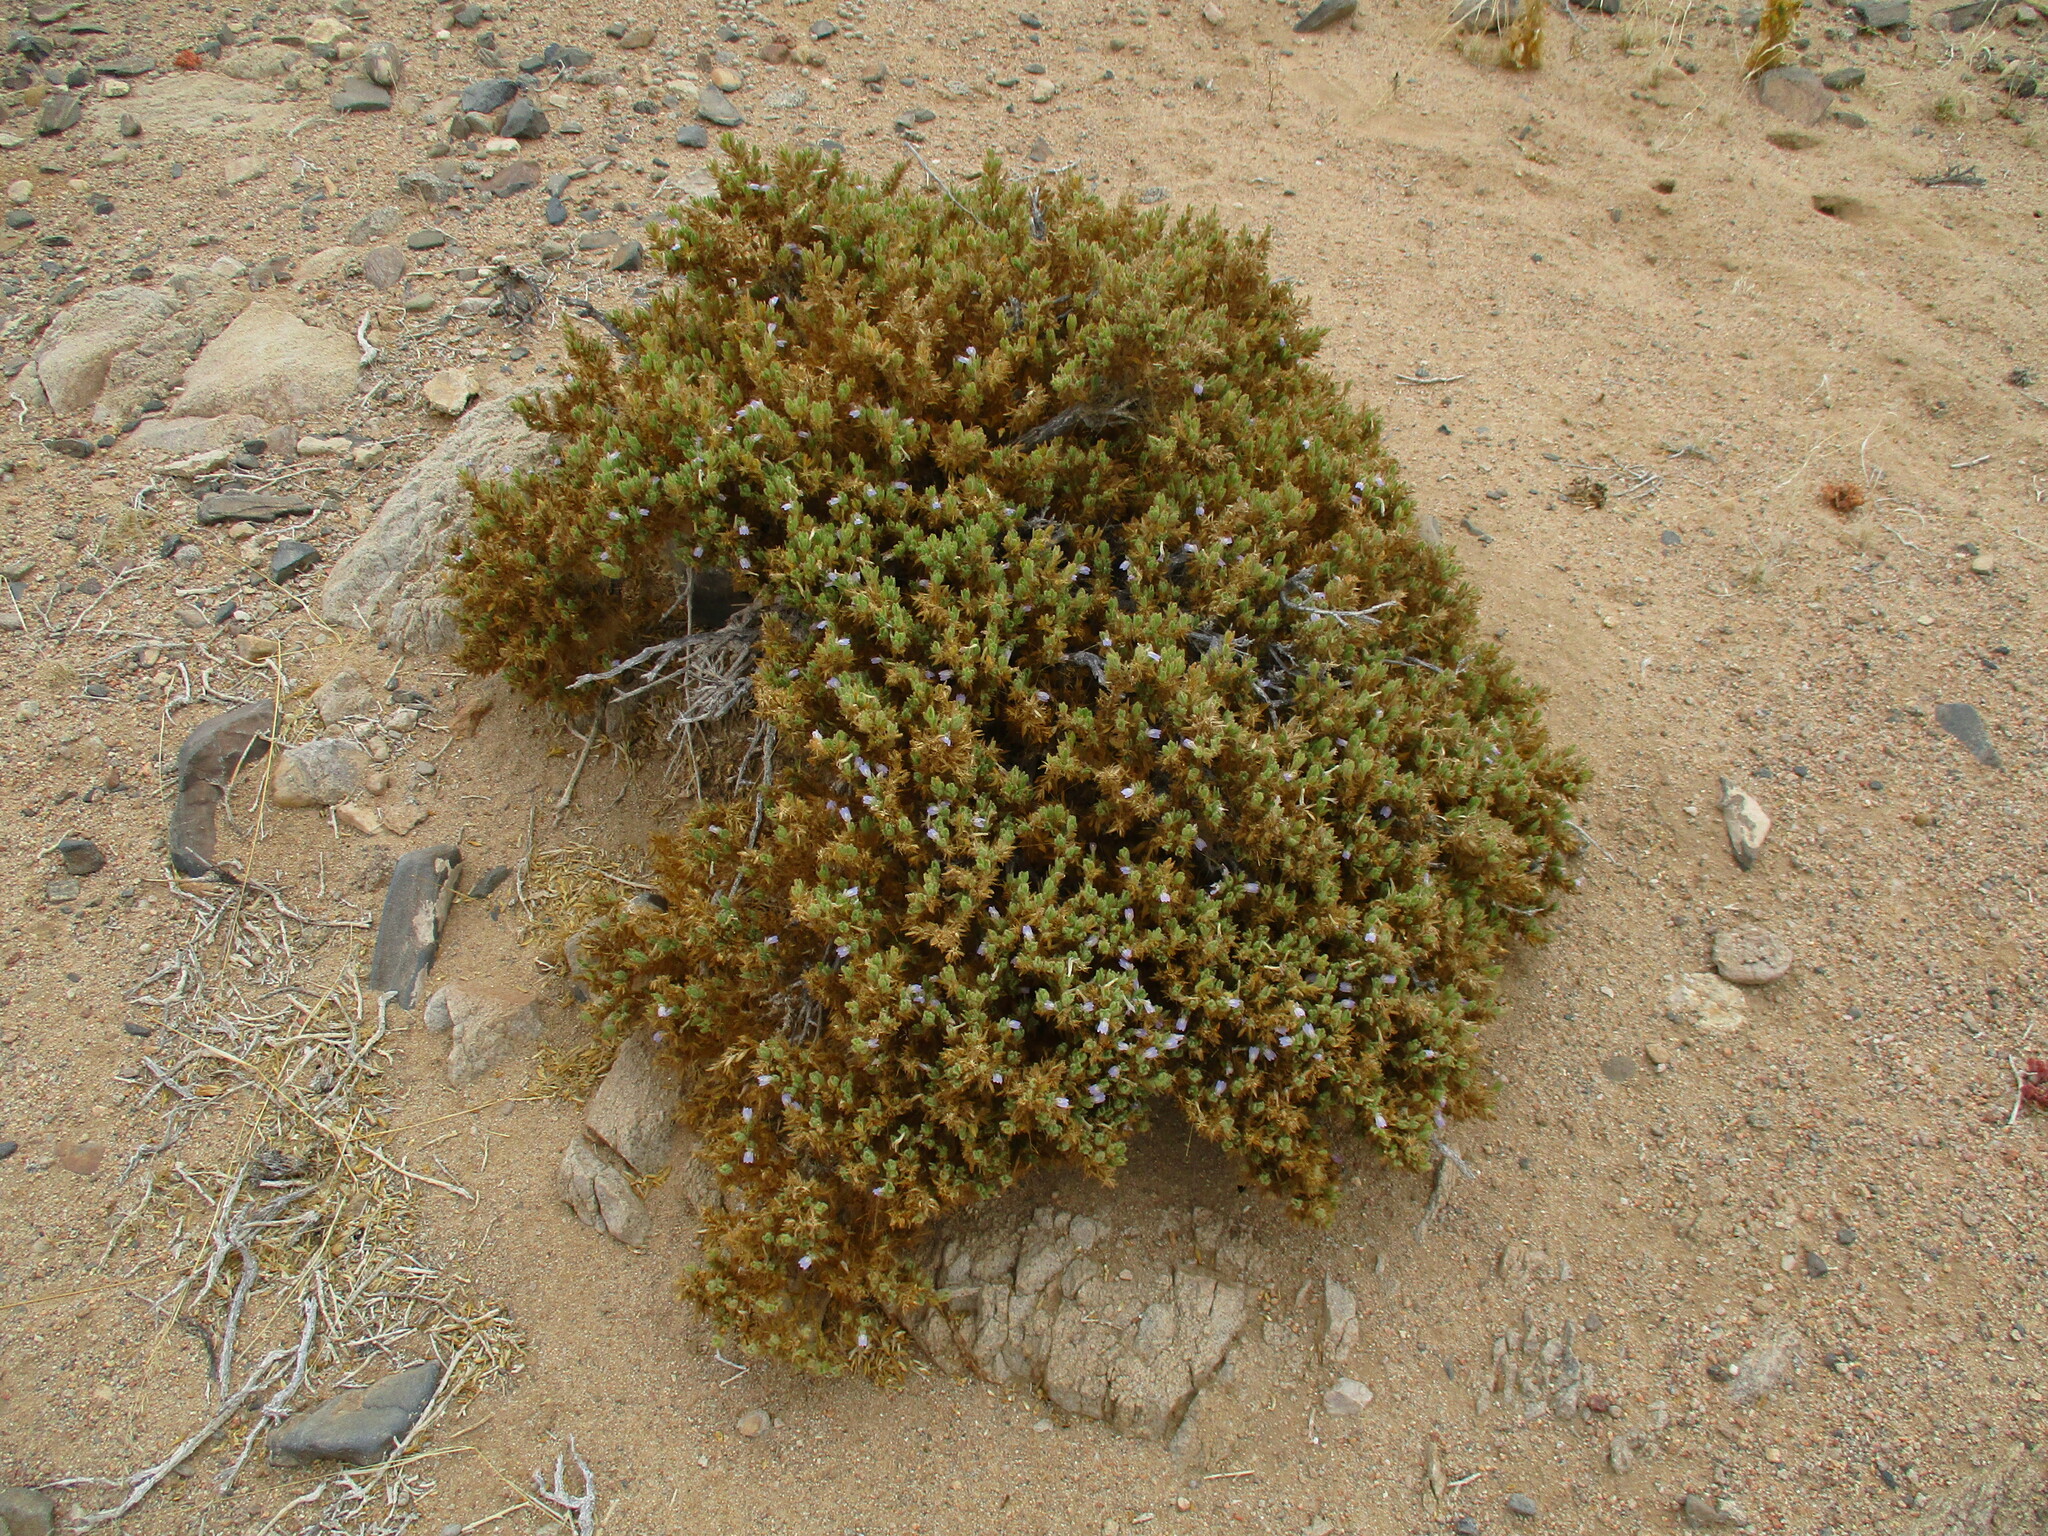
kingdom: Plantae
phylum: Tracheophyta
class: Magnoliopsida
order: Lamiales
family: Acanthaceae
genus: Pogonospermum
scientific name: Pogonospermum
